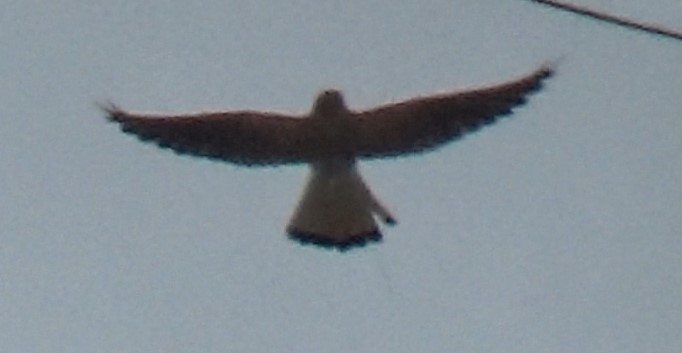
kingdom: Animalia
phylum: Chordata
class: Aves
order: Falconiformes
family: Falconidae
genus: Falco
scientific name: Falco tinnunculus
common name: Common kestrel
